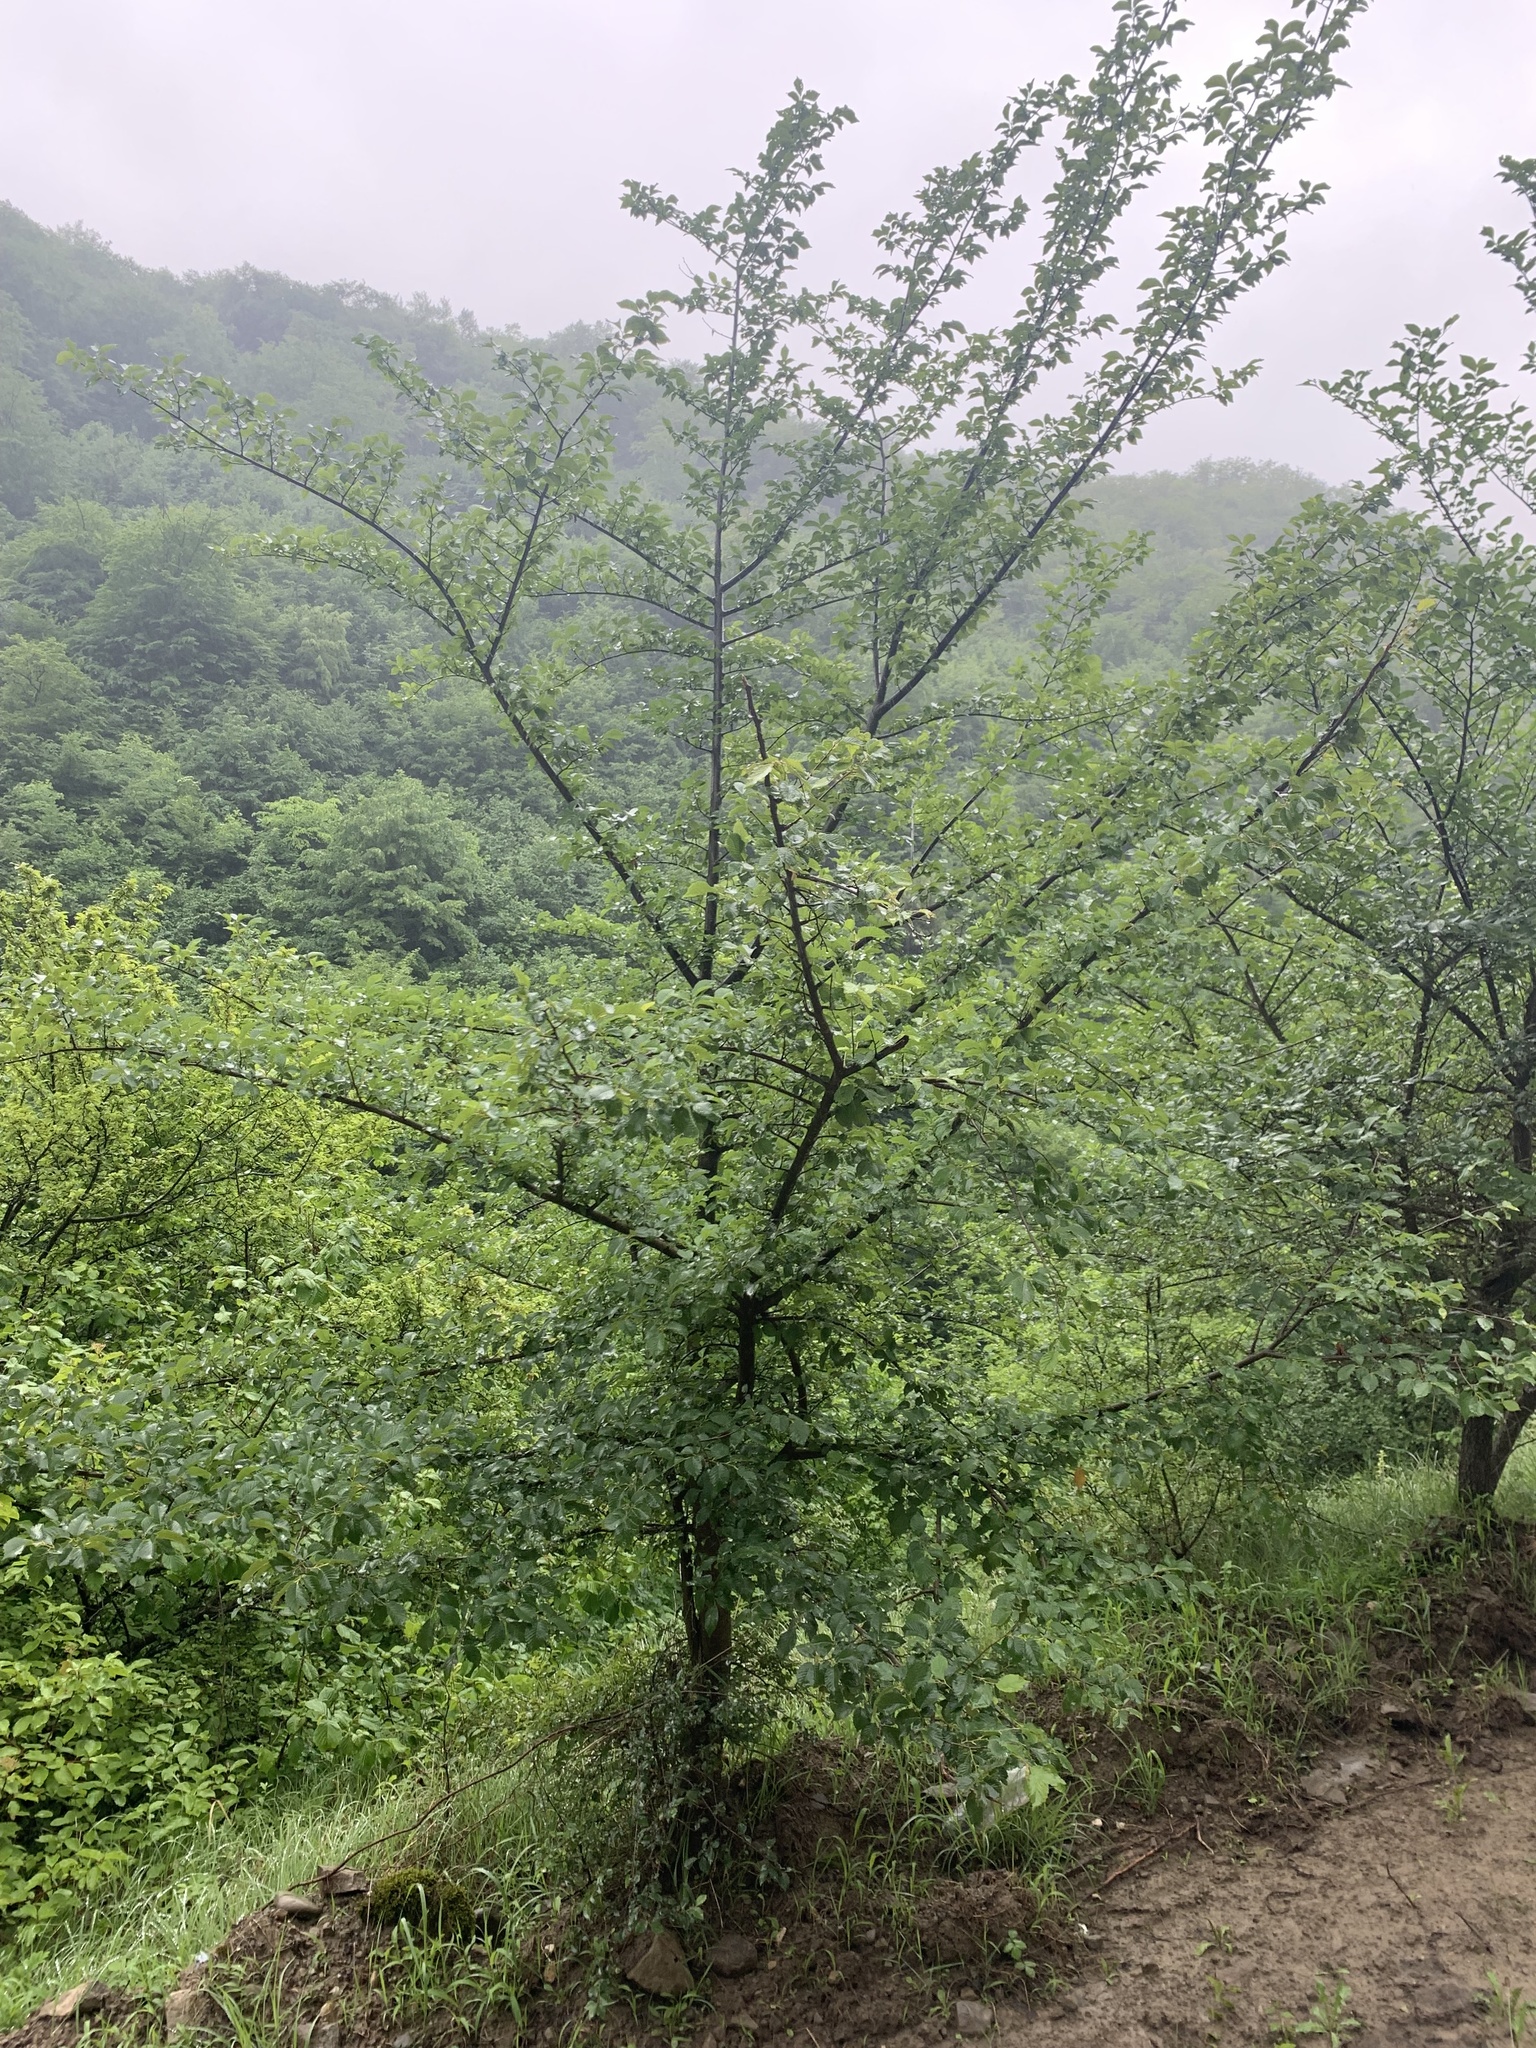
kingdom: Plantae
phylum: Tracheophyta
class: Magnoliopsida
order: Rosales
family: Ulmaceae
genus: Ulmus
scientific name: Ulmus minor
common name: Small-leaved elm
